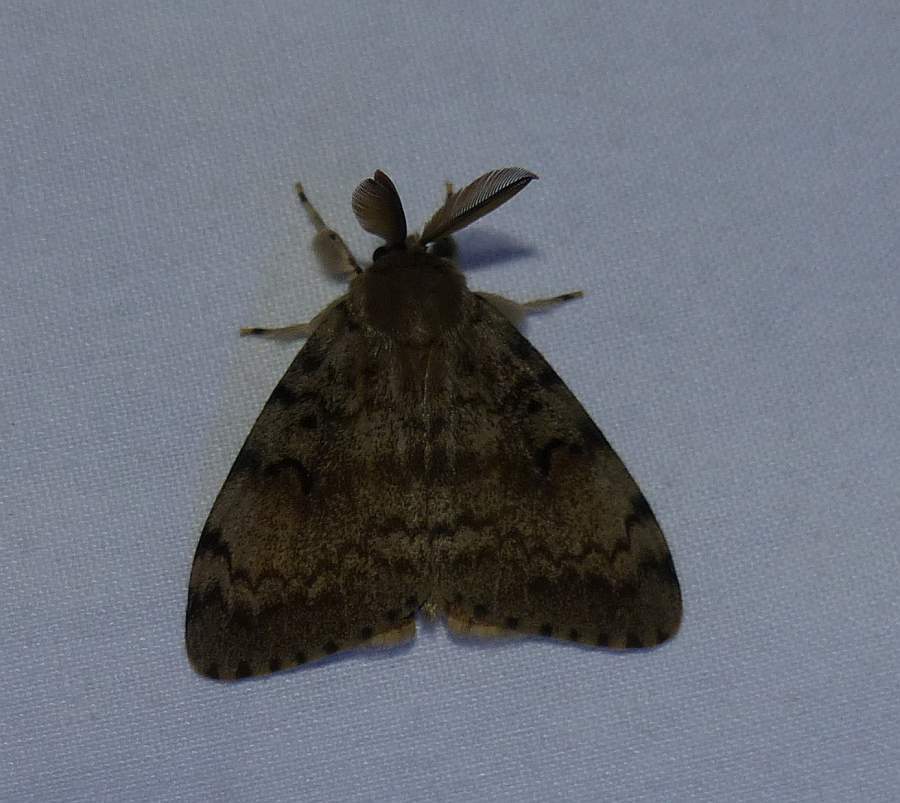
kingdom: Animalia
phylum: Arthropoda
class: Insecta
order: Lepidoptera
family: Erebidae
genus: Lymantria
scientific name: Lymantria dispar
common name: Gypsy moth
